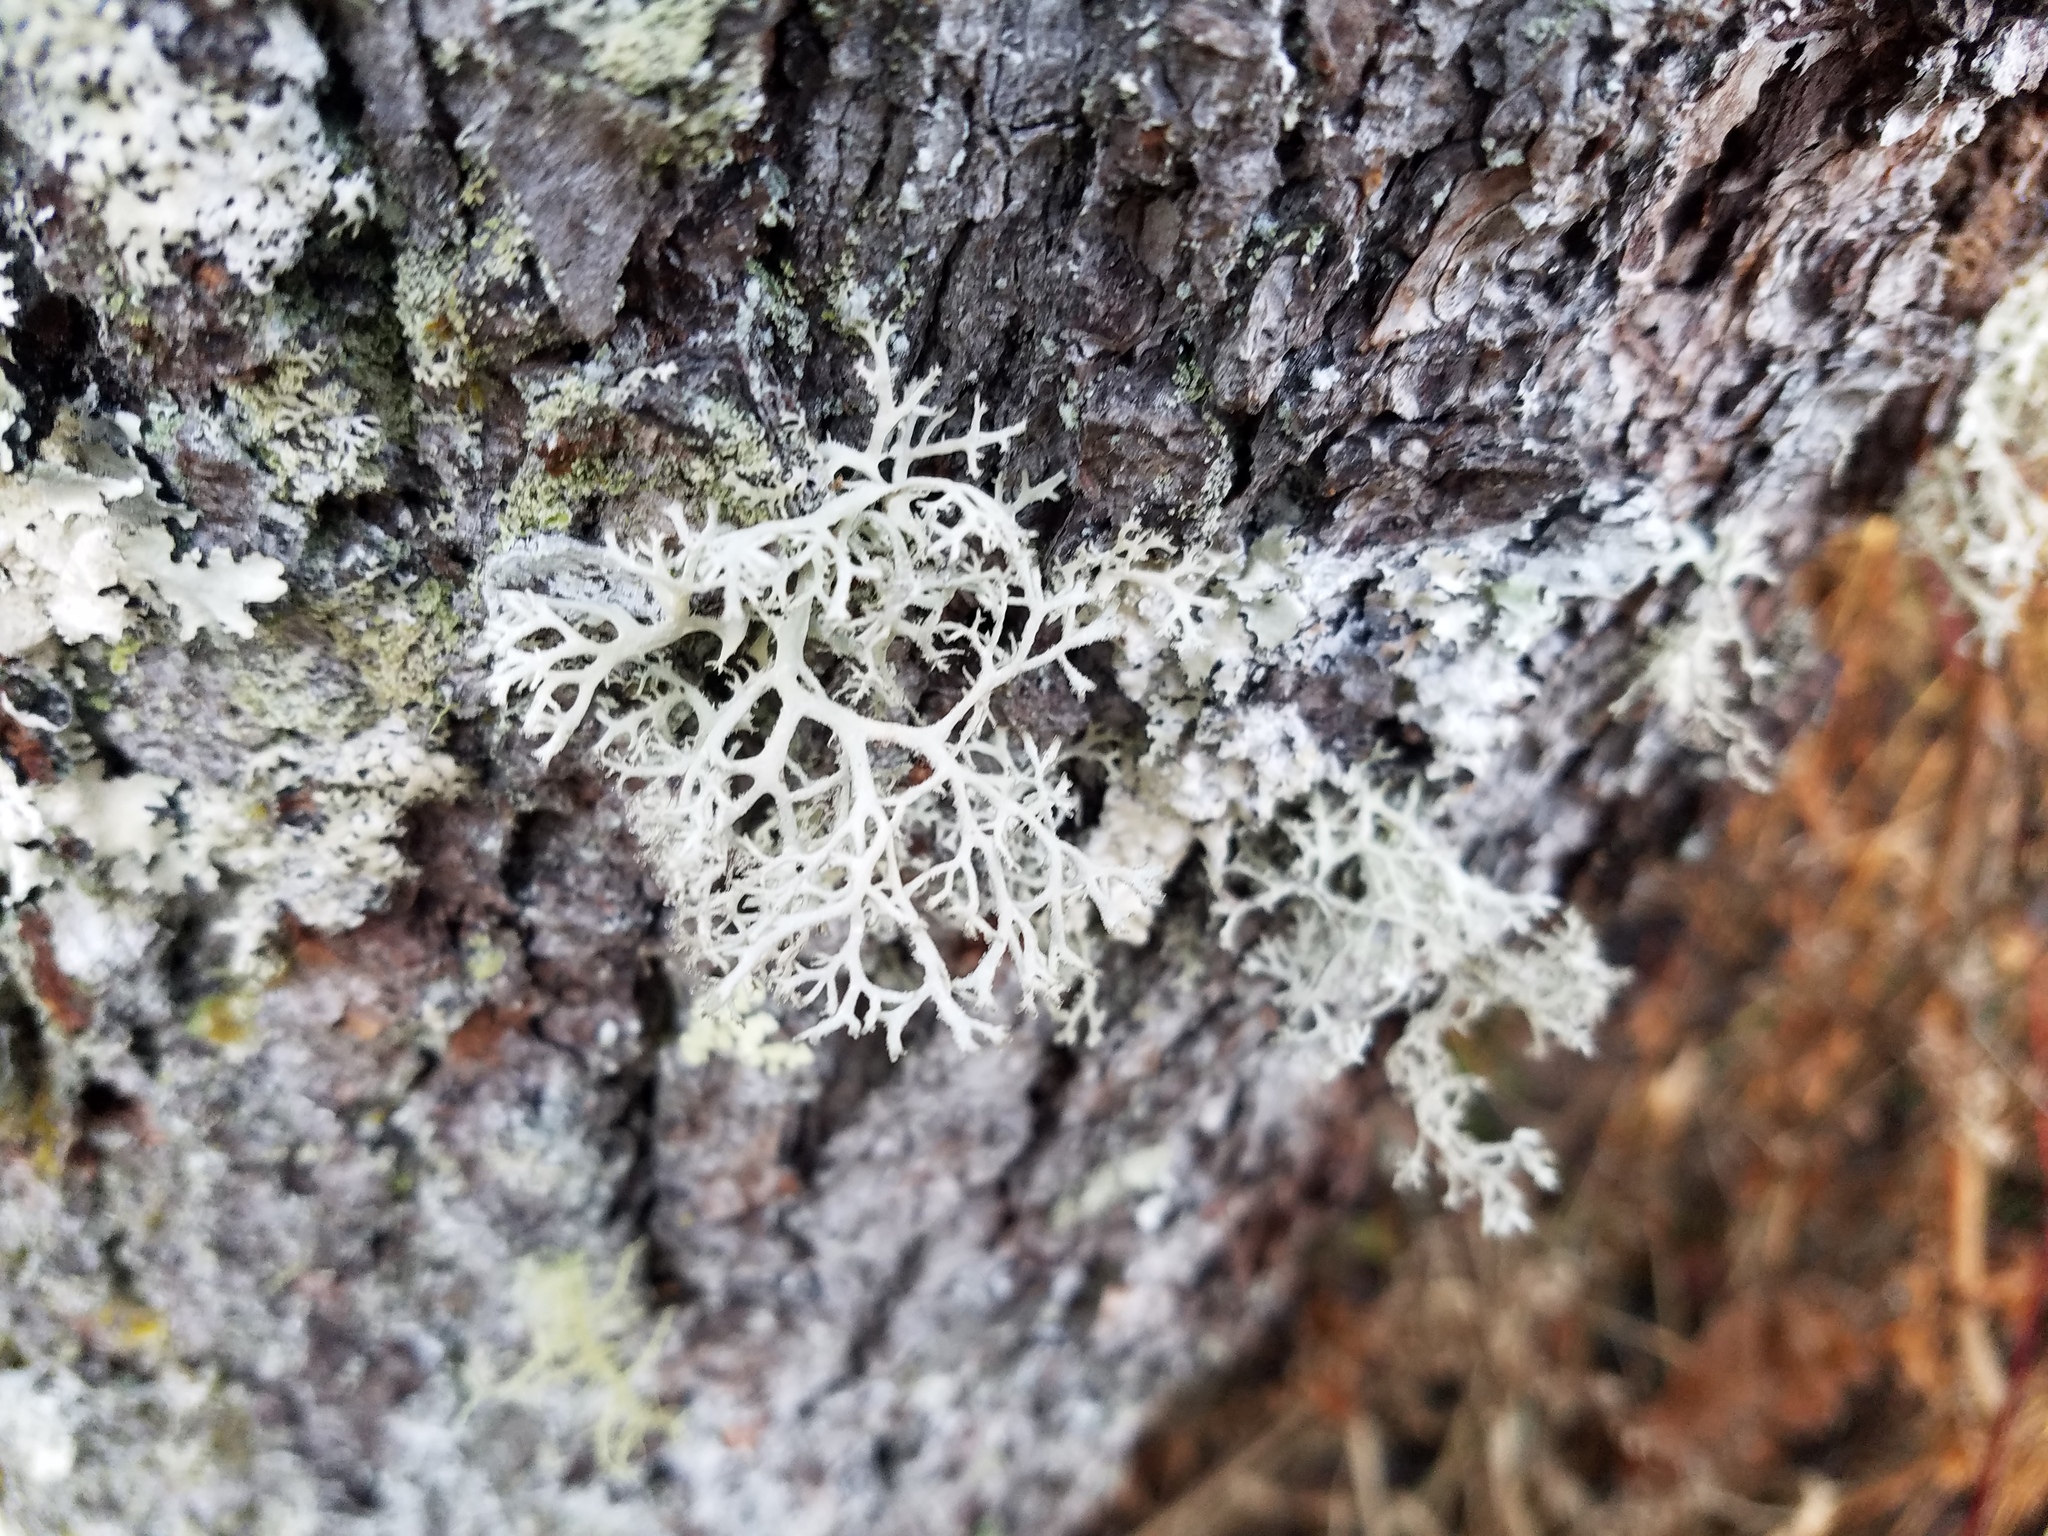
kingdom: Fungi
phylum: Ascomycota
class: Lecanoromycetes
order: Lecanorales
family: Parmeliaceae
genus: Pseudevernia
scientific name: Pseudevernia consocians
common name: Common antler lichen
